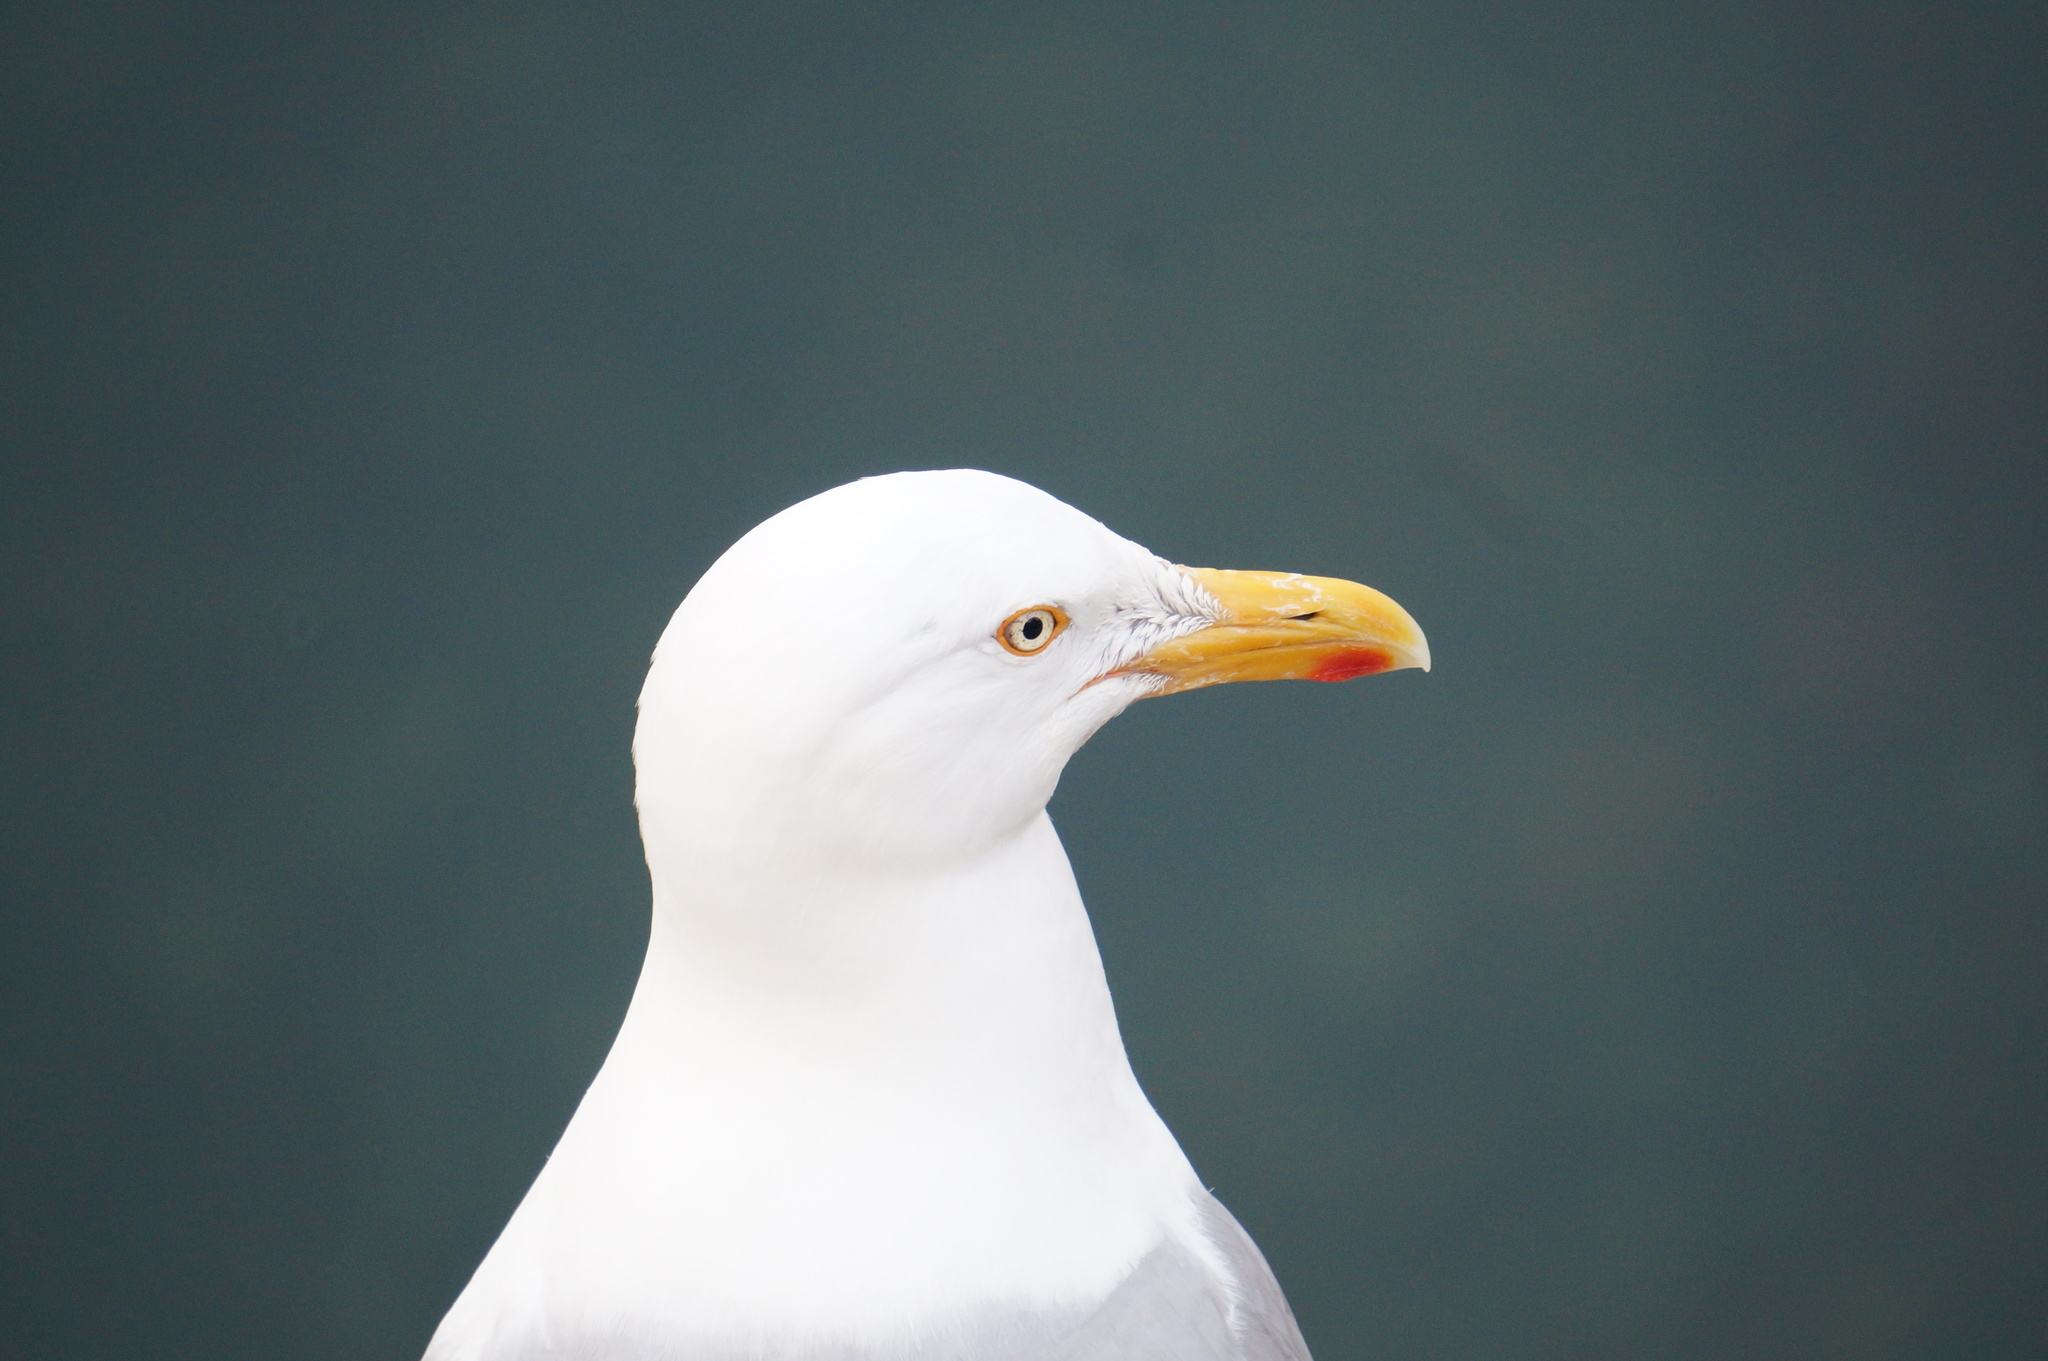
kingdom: Animalia
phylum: Chordata
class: Aves
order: Charadriiformes
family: Laridae
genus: Larus
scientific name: Larus argentatus
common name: Herring gull
